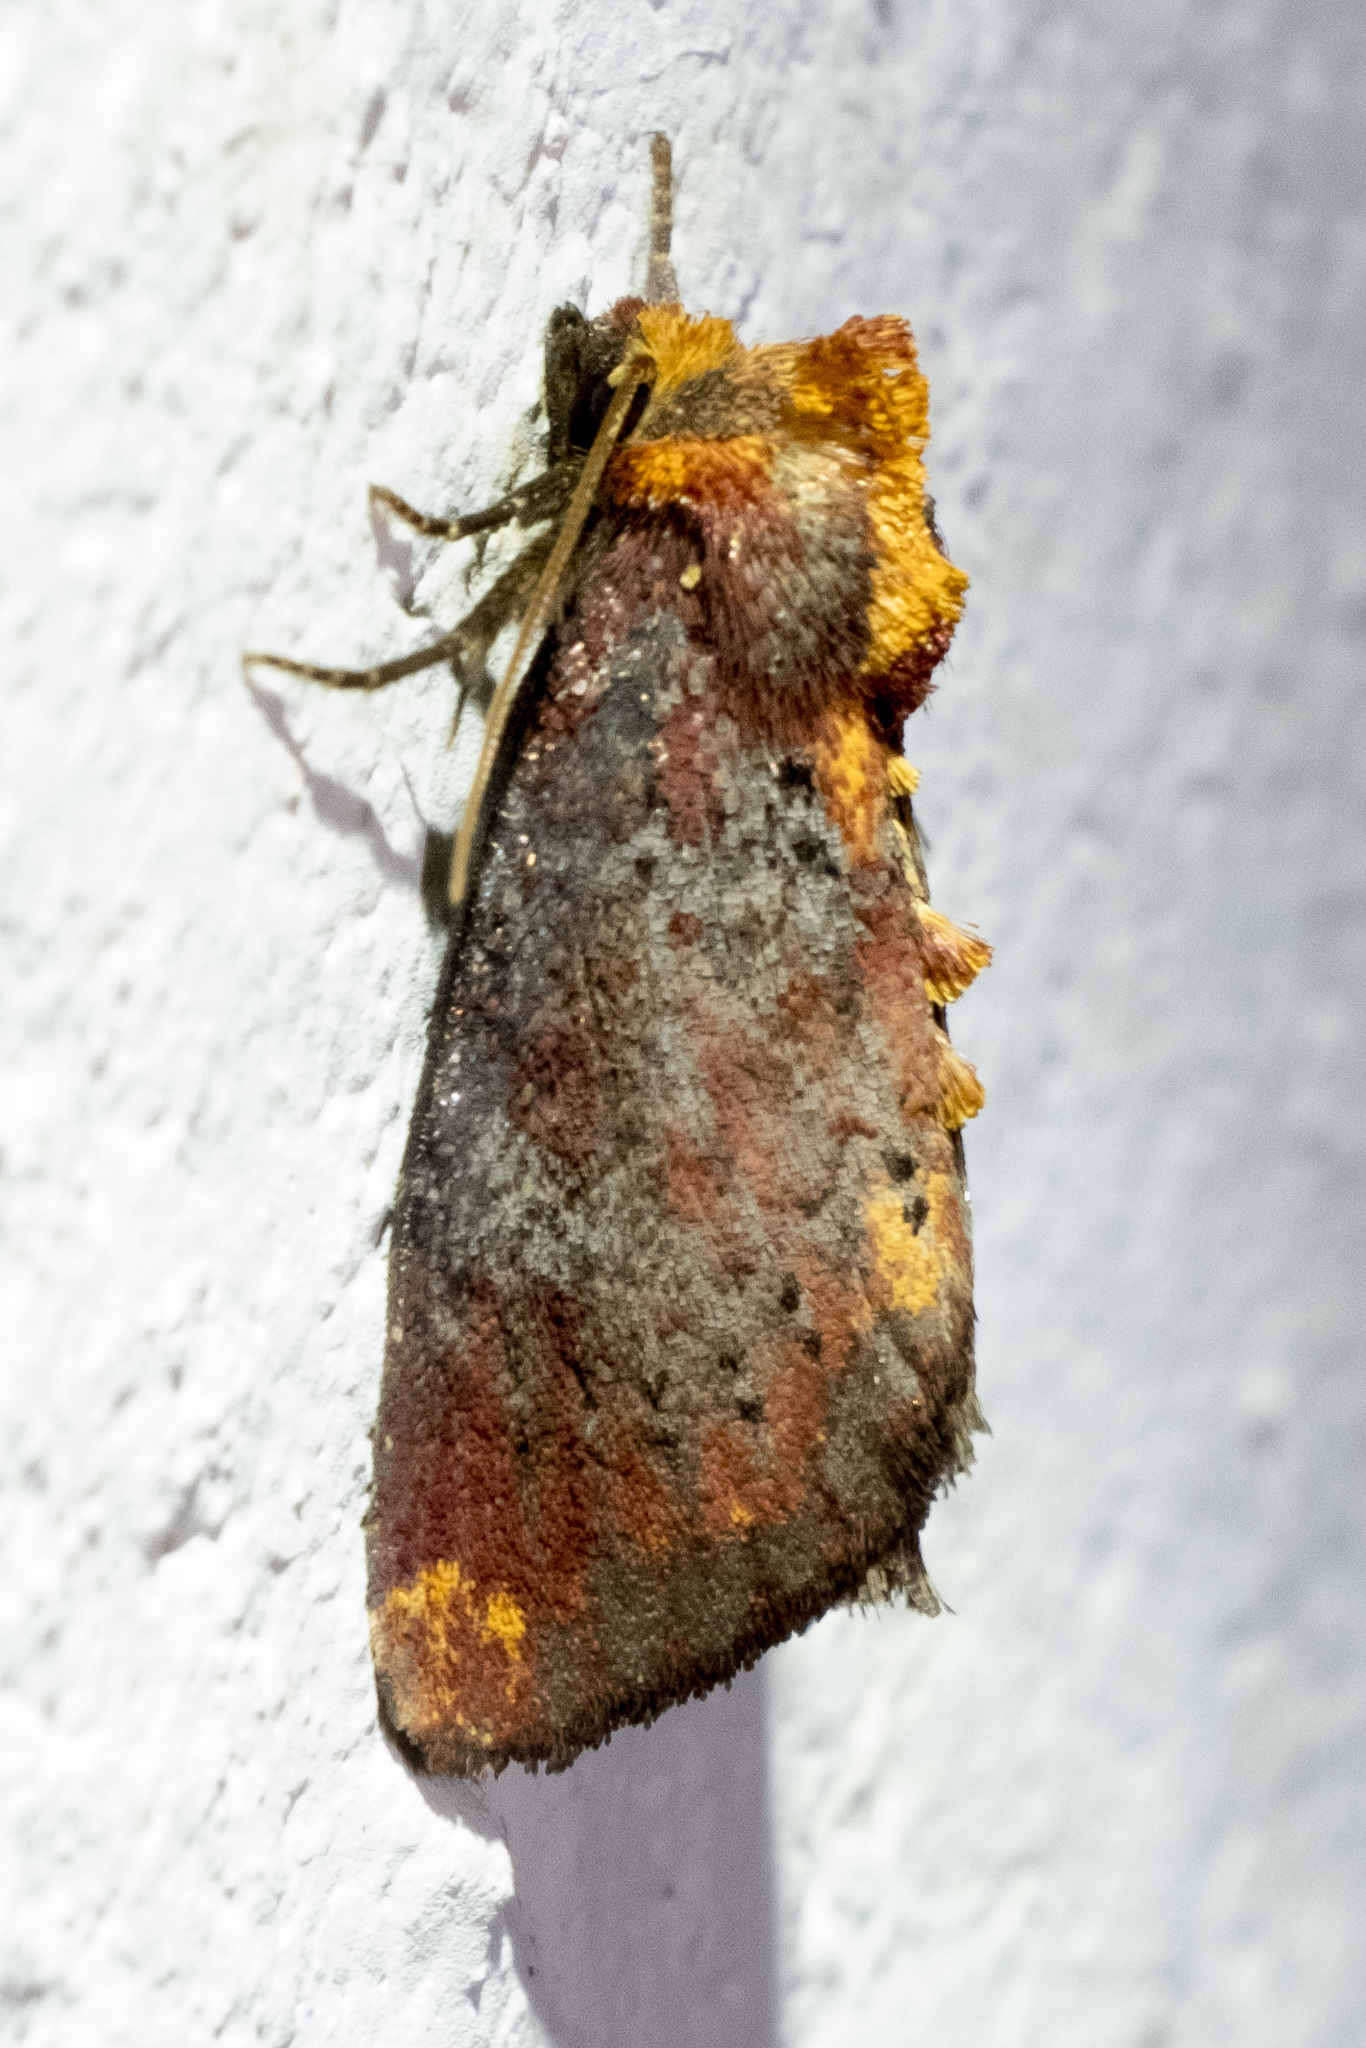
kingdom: Animalia
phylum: Arthropoda
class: Insecta
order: Lepidoptera
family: Noctuidae
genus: Achatodes
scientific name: Achatodes zeae
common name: Elder shoot borer
